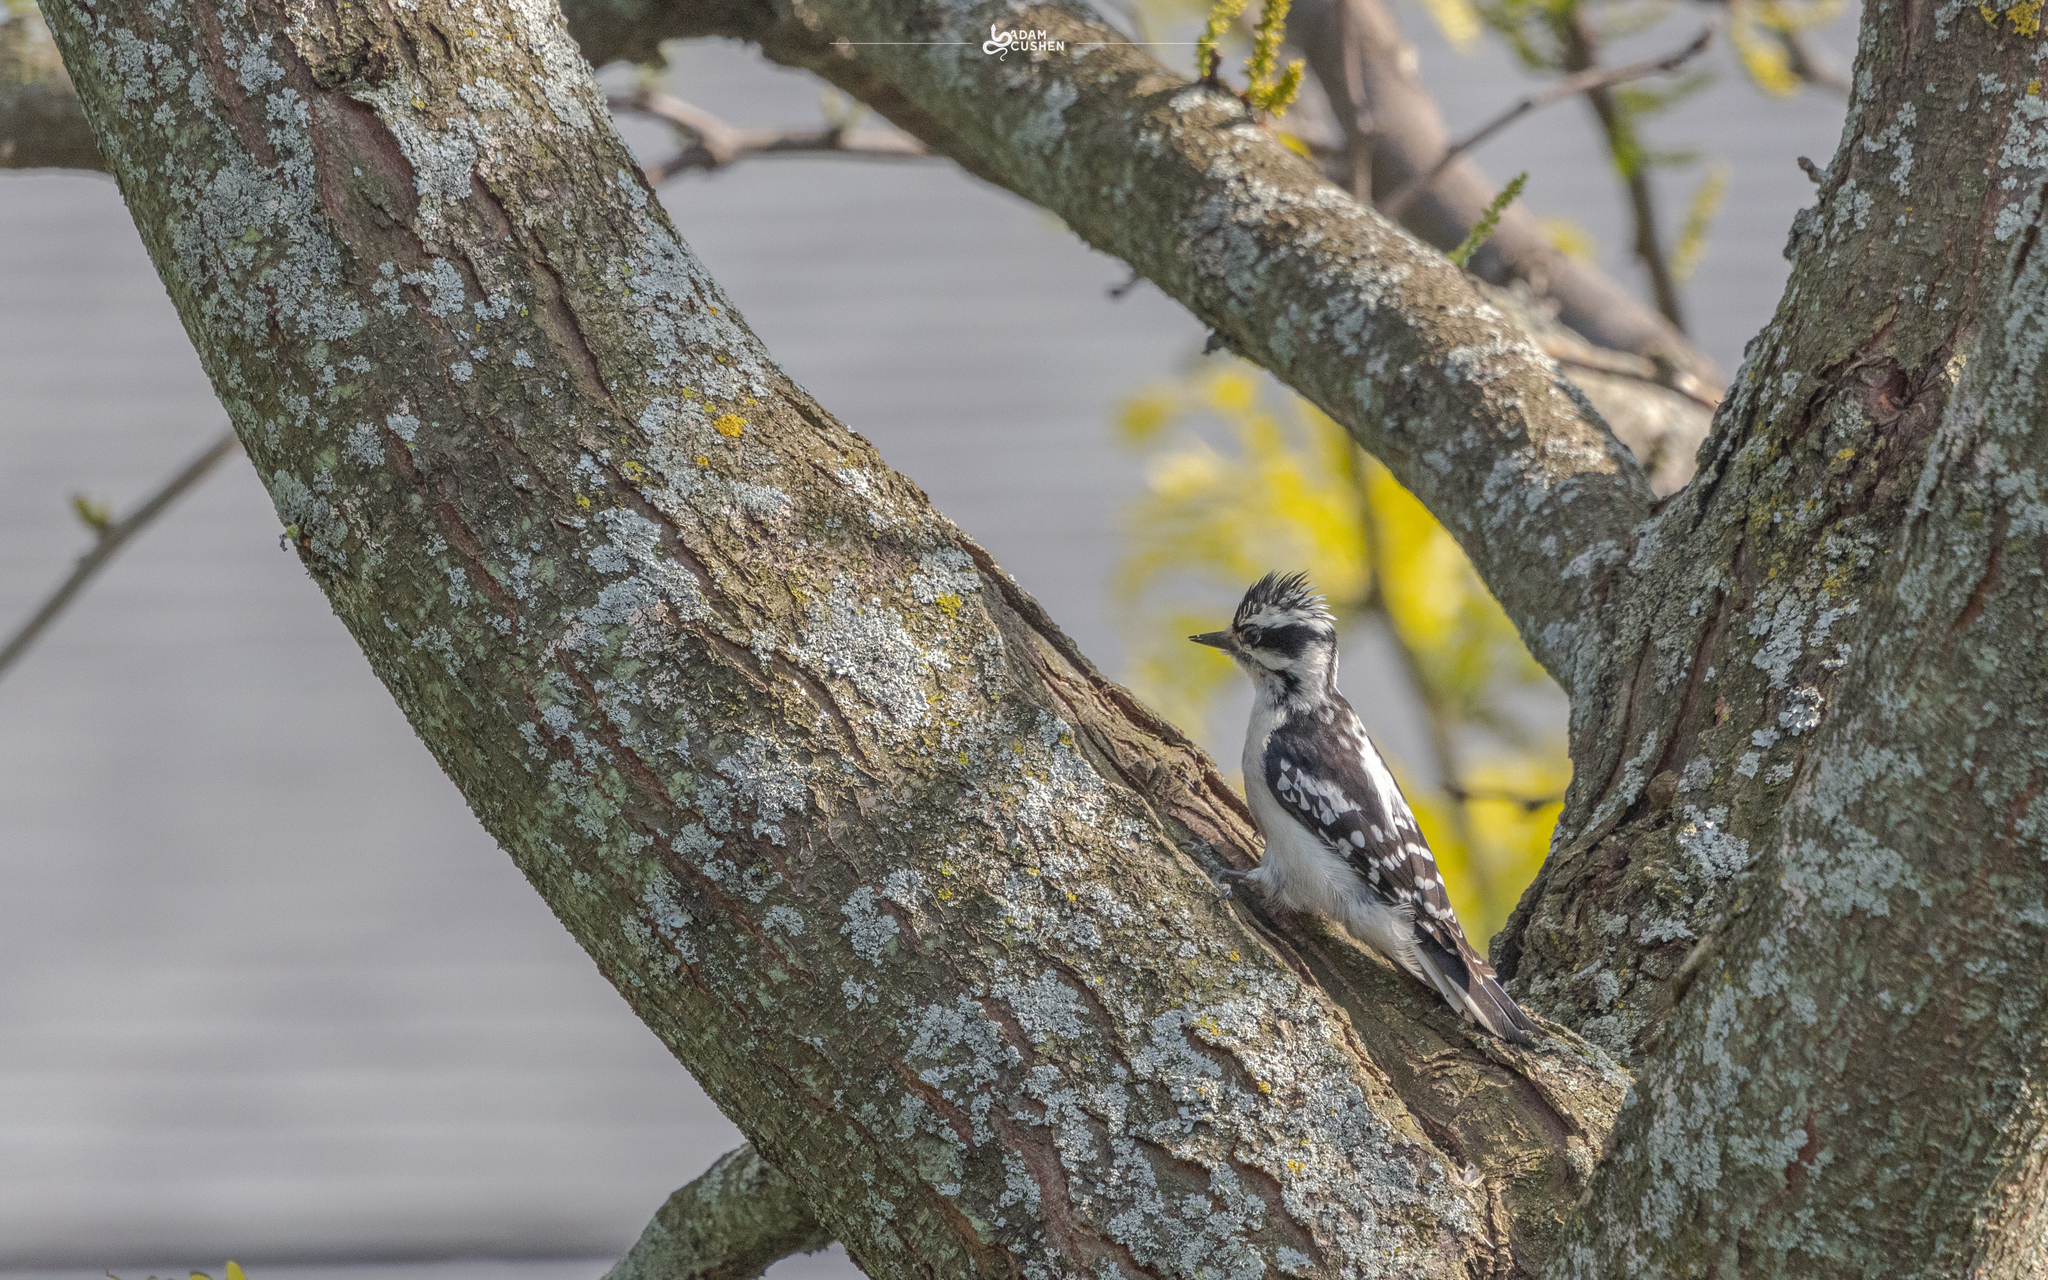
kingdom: Animalia
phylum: Chordata
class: Aves
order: Piciformes
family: Picidae
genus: Dryobates
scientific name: Dryobates pubescens
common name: Downy woodpecker
